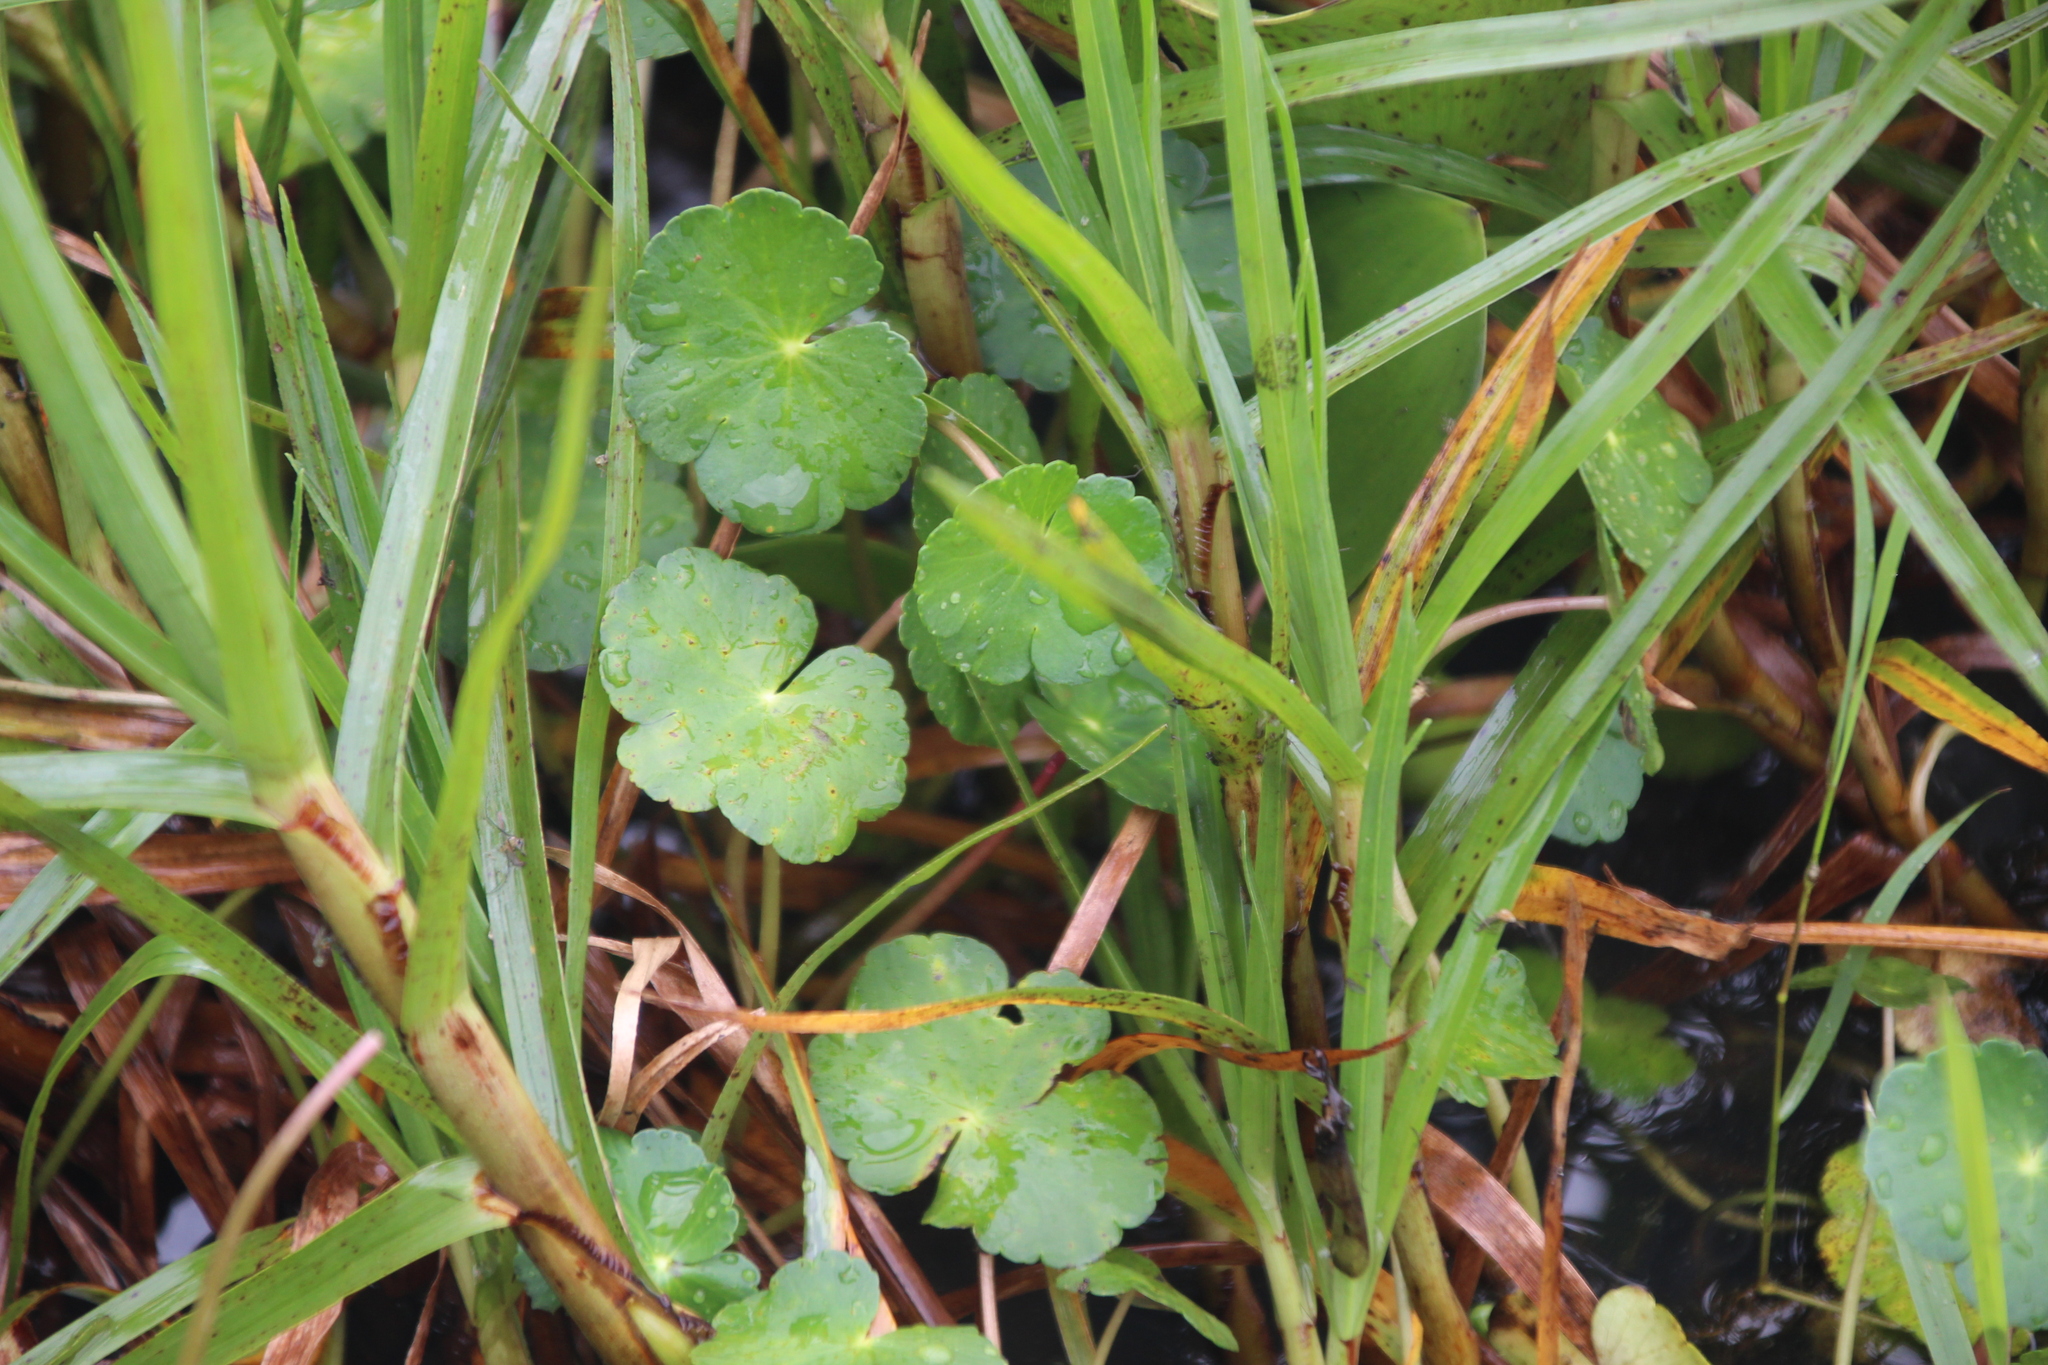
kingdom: Plantae
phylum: Tracheophyta
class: Magnoliopsida
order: Apiales
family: Araliaceae
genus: Hydrocotyle
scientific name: Hydrocotyle ranunculoides
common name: Floating pennywort
